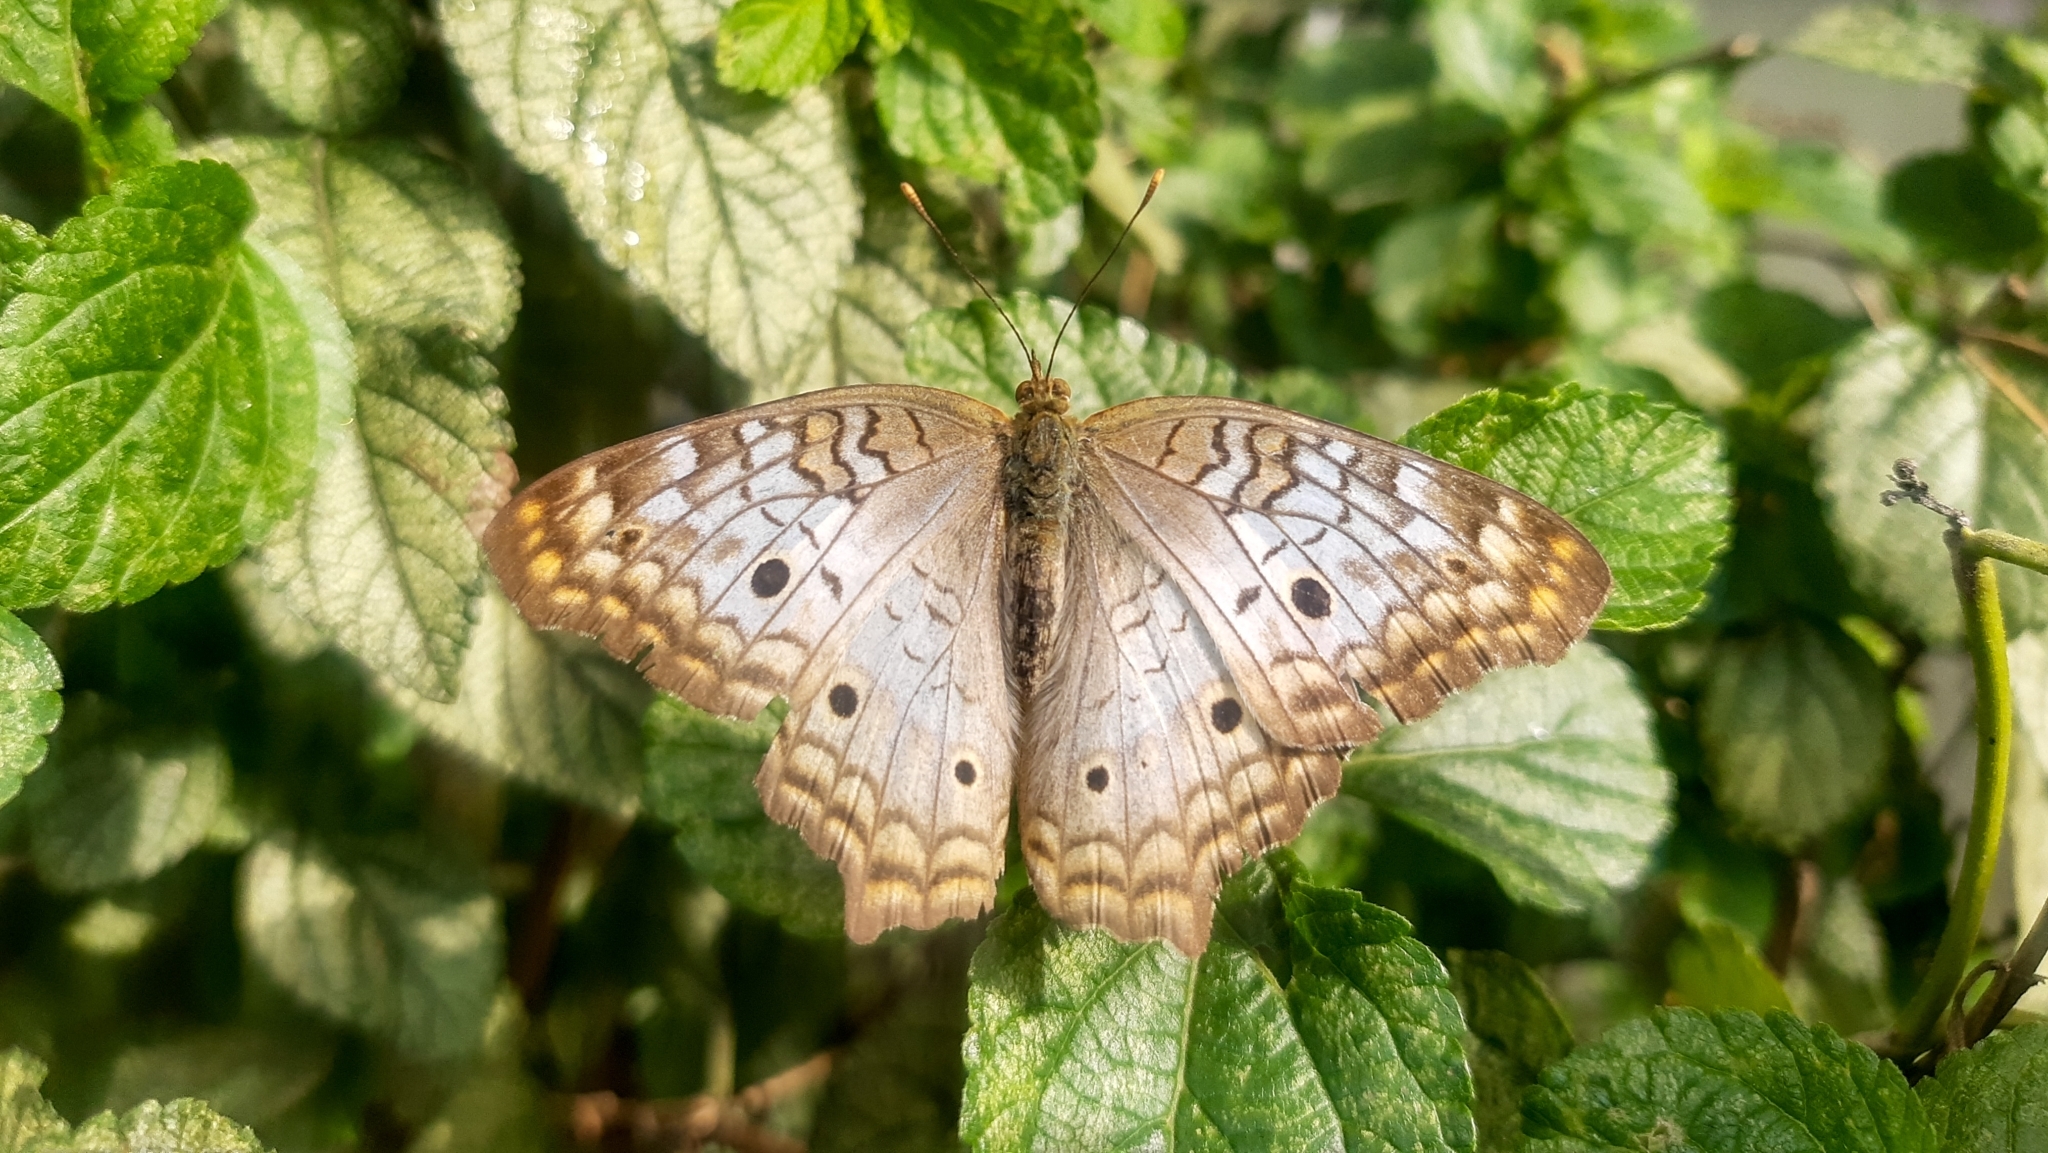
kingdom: Animalia
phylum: Arthropoda
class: Insecta
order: Lepidoptera
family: Nymphalidae
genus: Anartia
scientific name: Anartia jatrophae
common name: White peacock
